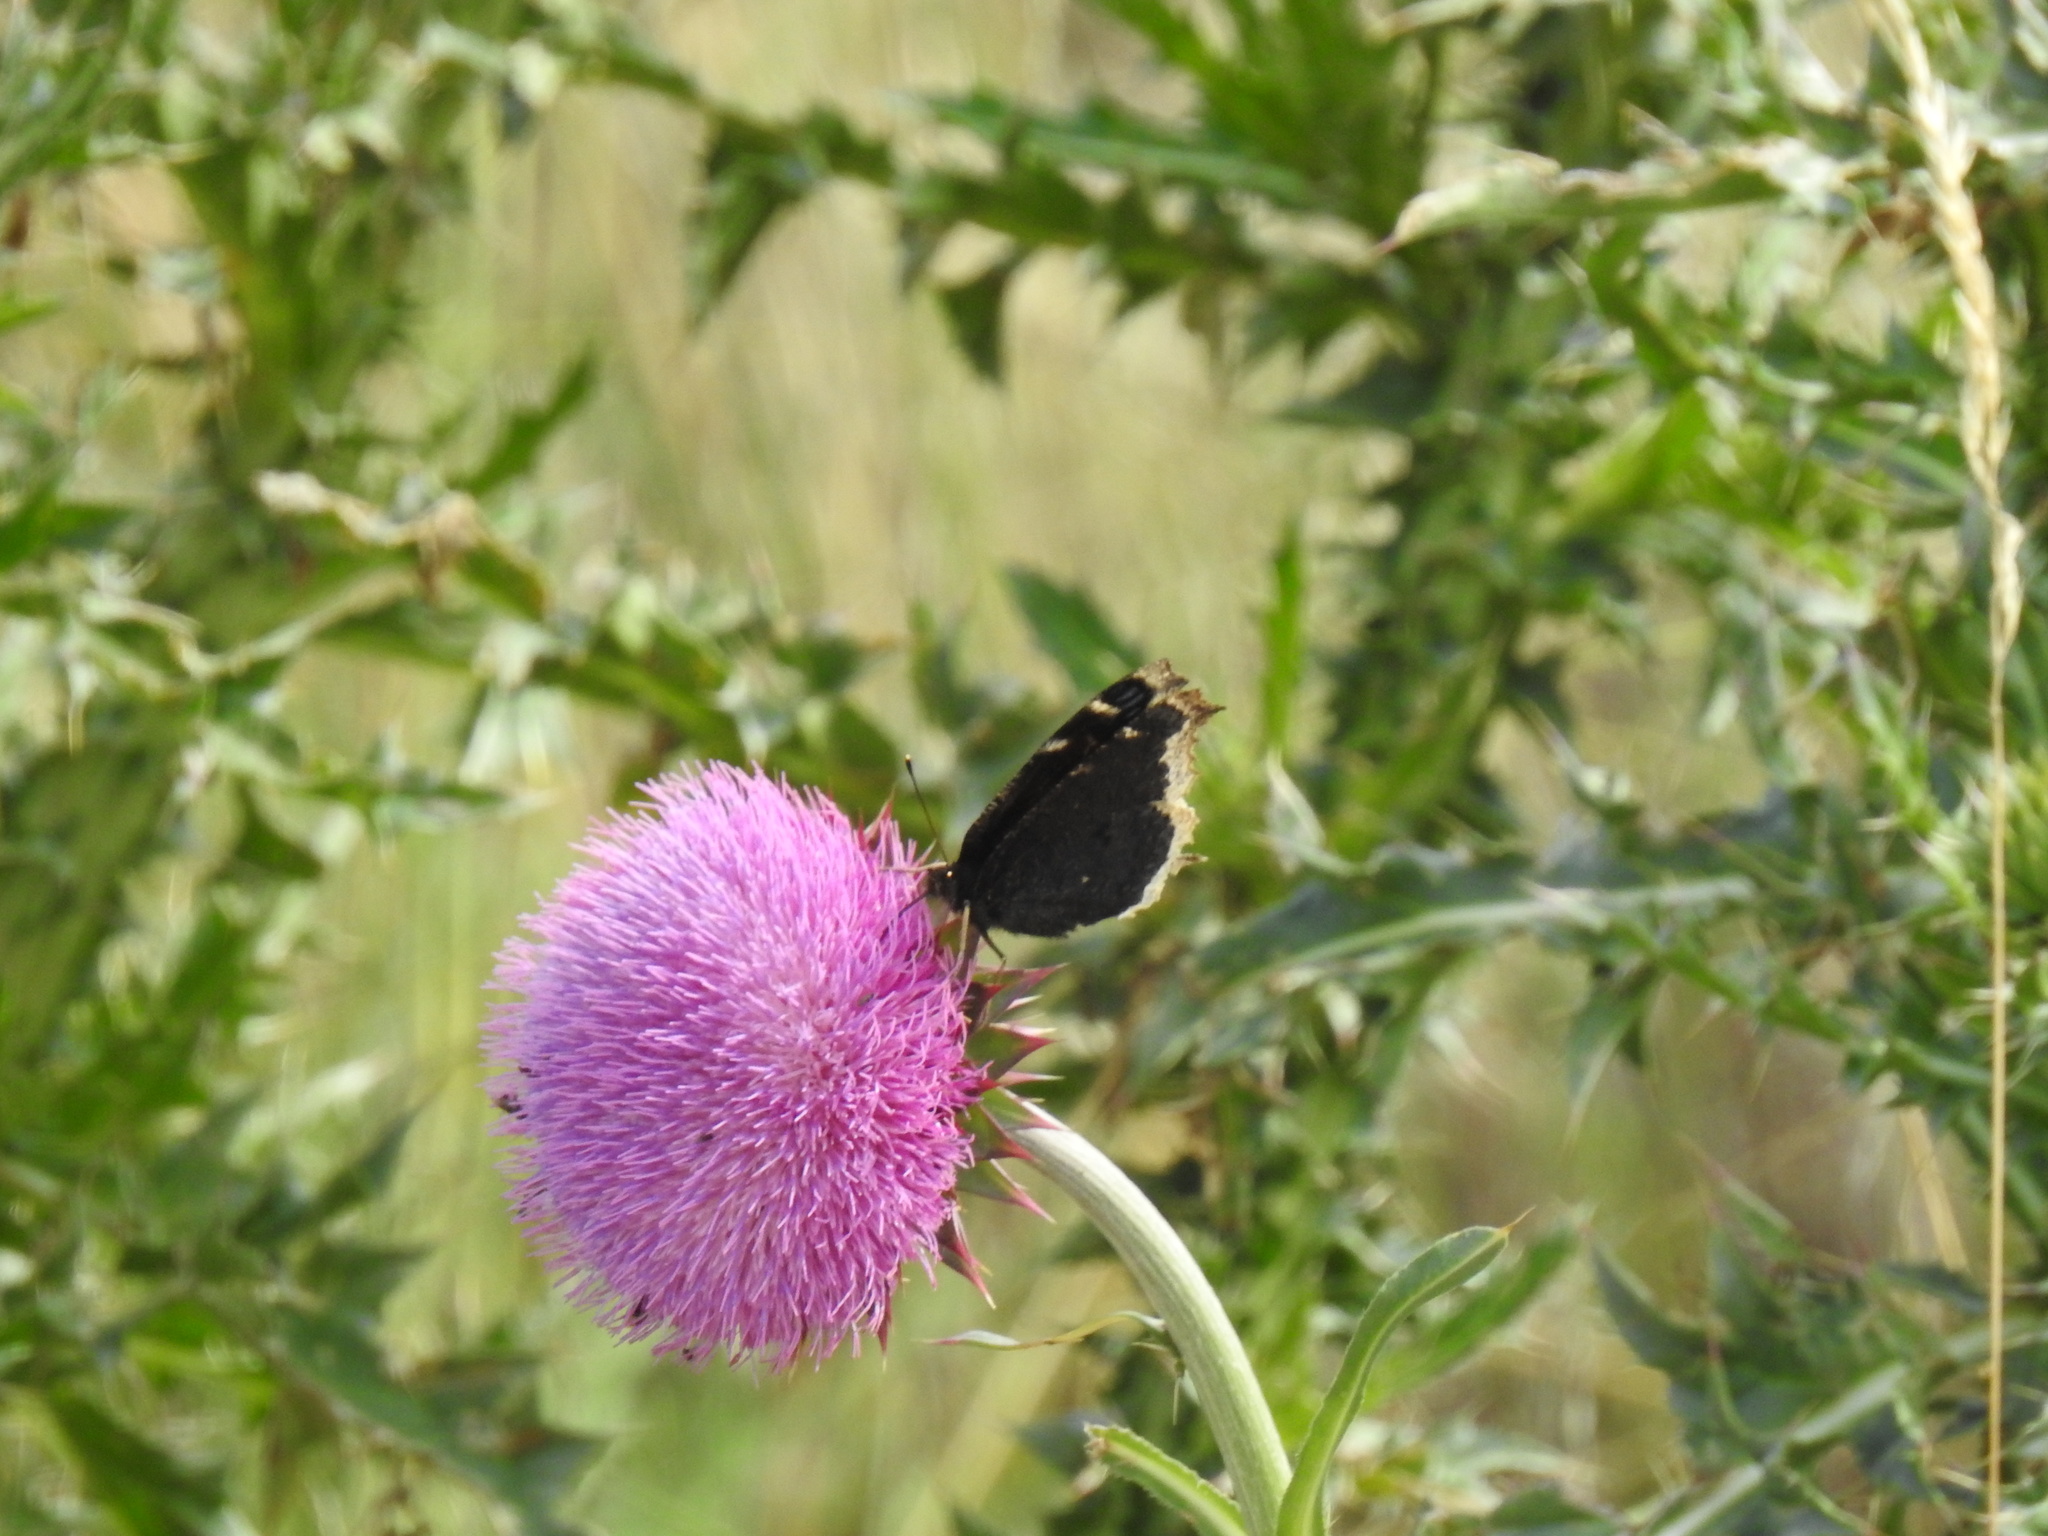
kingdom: Animalia
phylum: Arthropoda
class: Insecta
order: Lepidoptera
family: Nymphalidae
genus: Nymphalis
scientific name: Nymphalis antiopa
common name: Camberwell beauty
